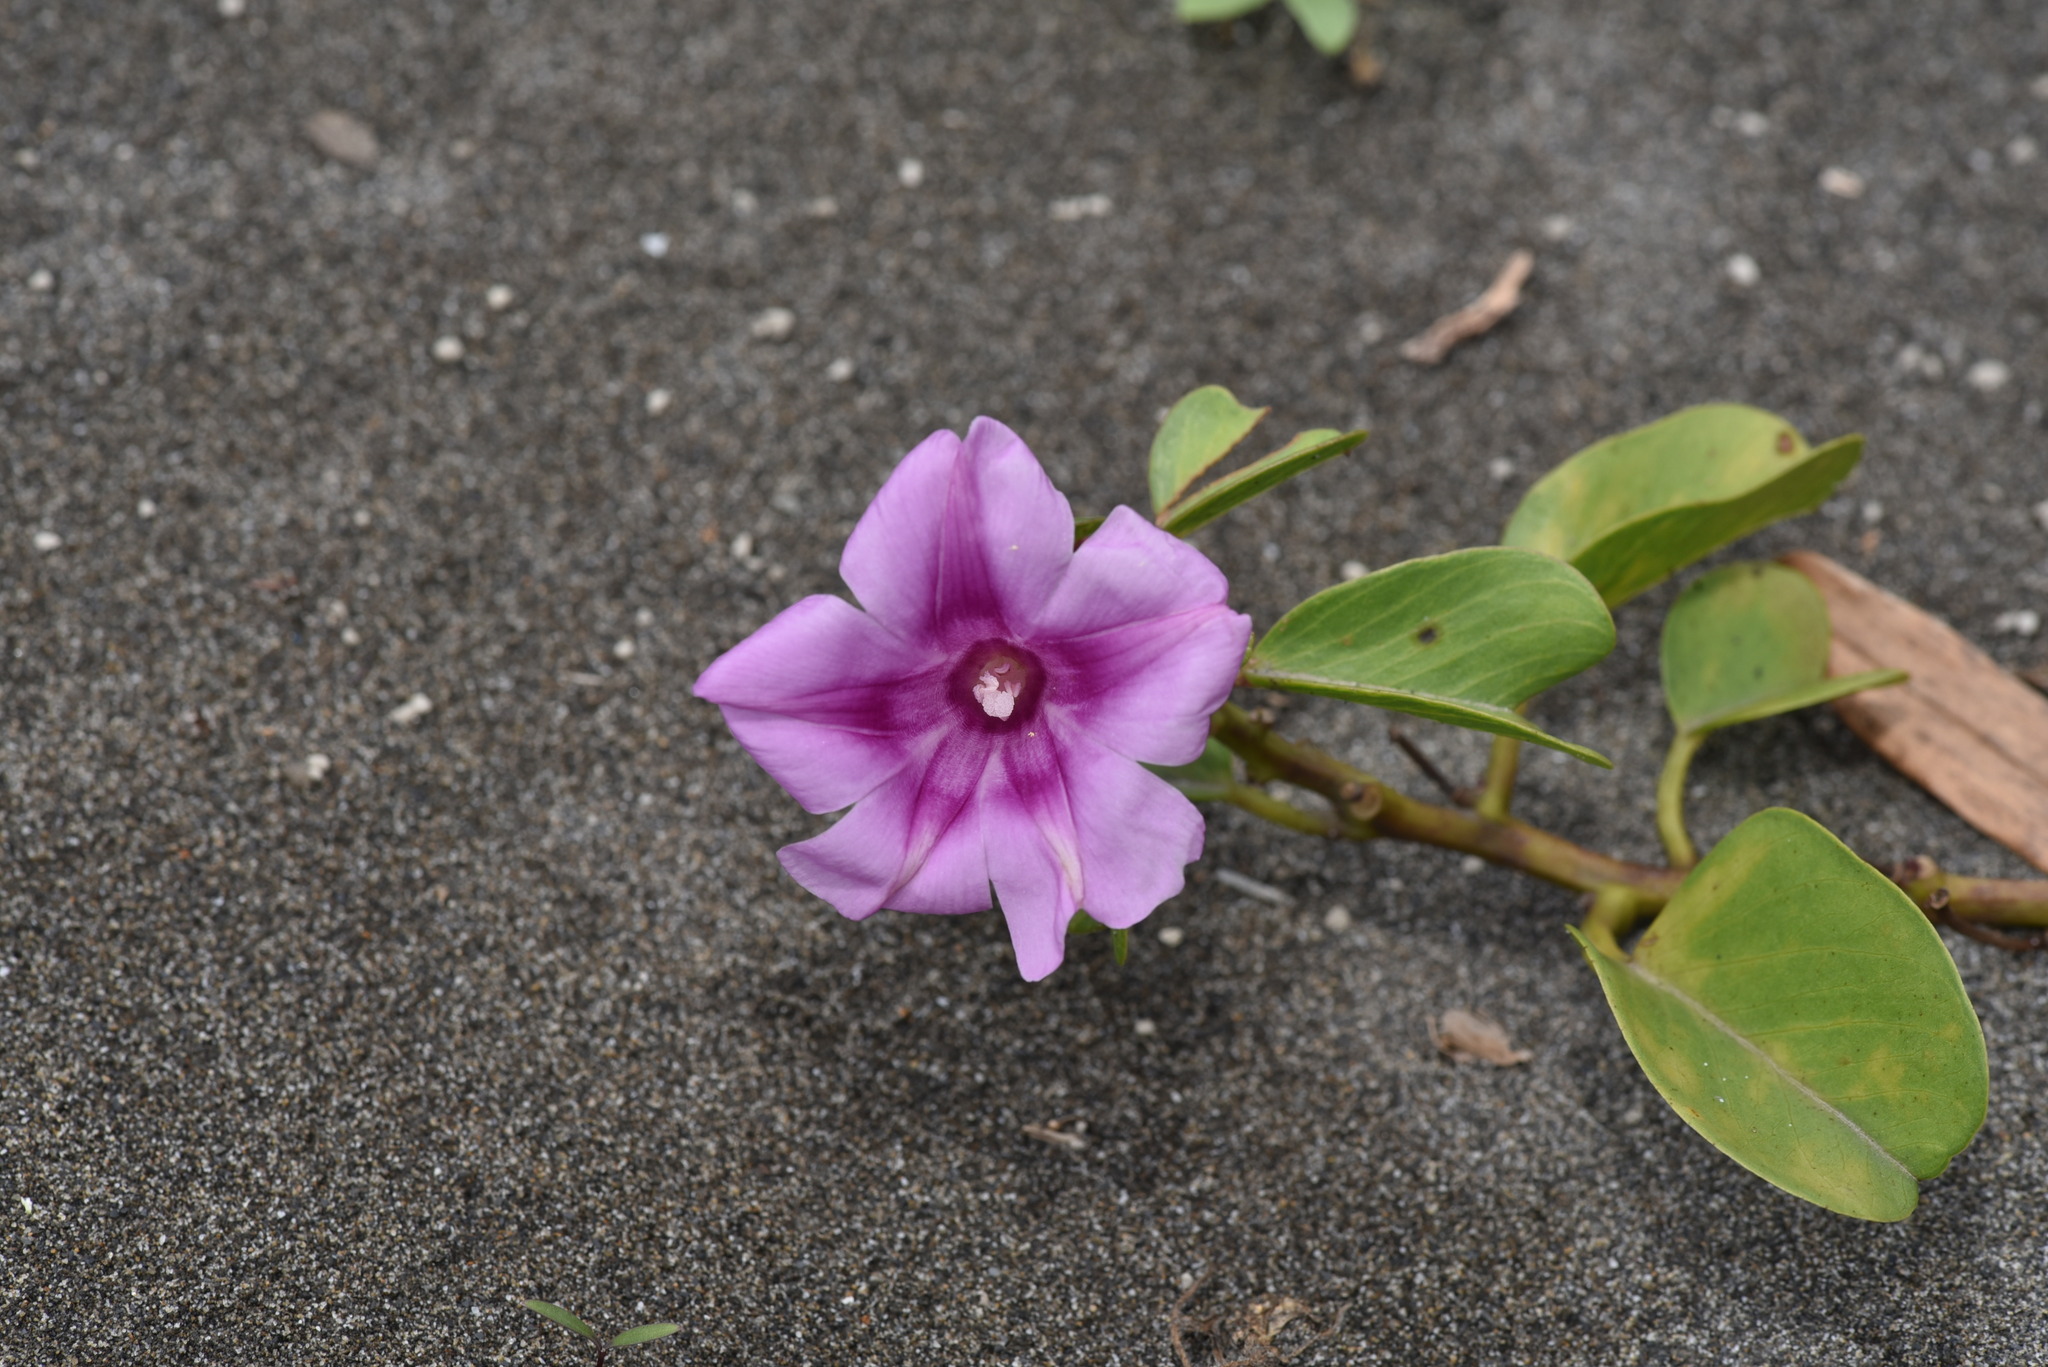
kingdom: Plantae
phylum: Tracheophyta
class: Magnoliopsida
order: Solanales
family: Convolvulaceae
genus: Ipomoea
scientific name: Ipomoea pes-caprae
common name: Beach morning glory
